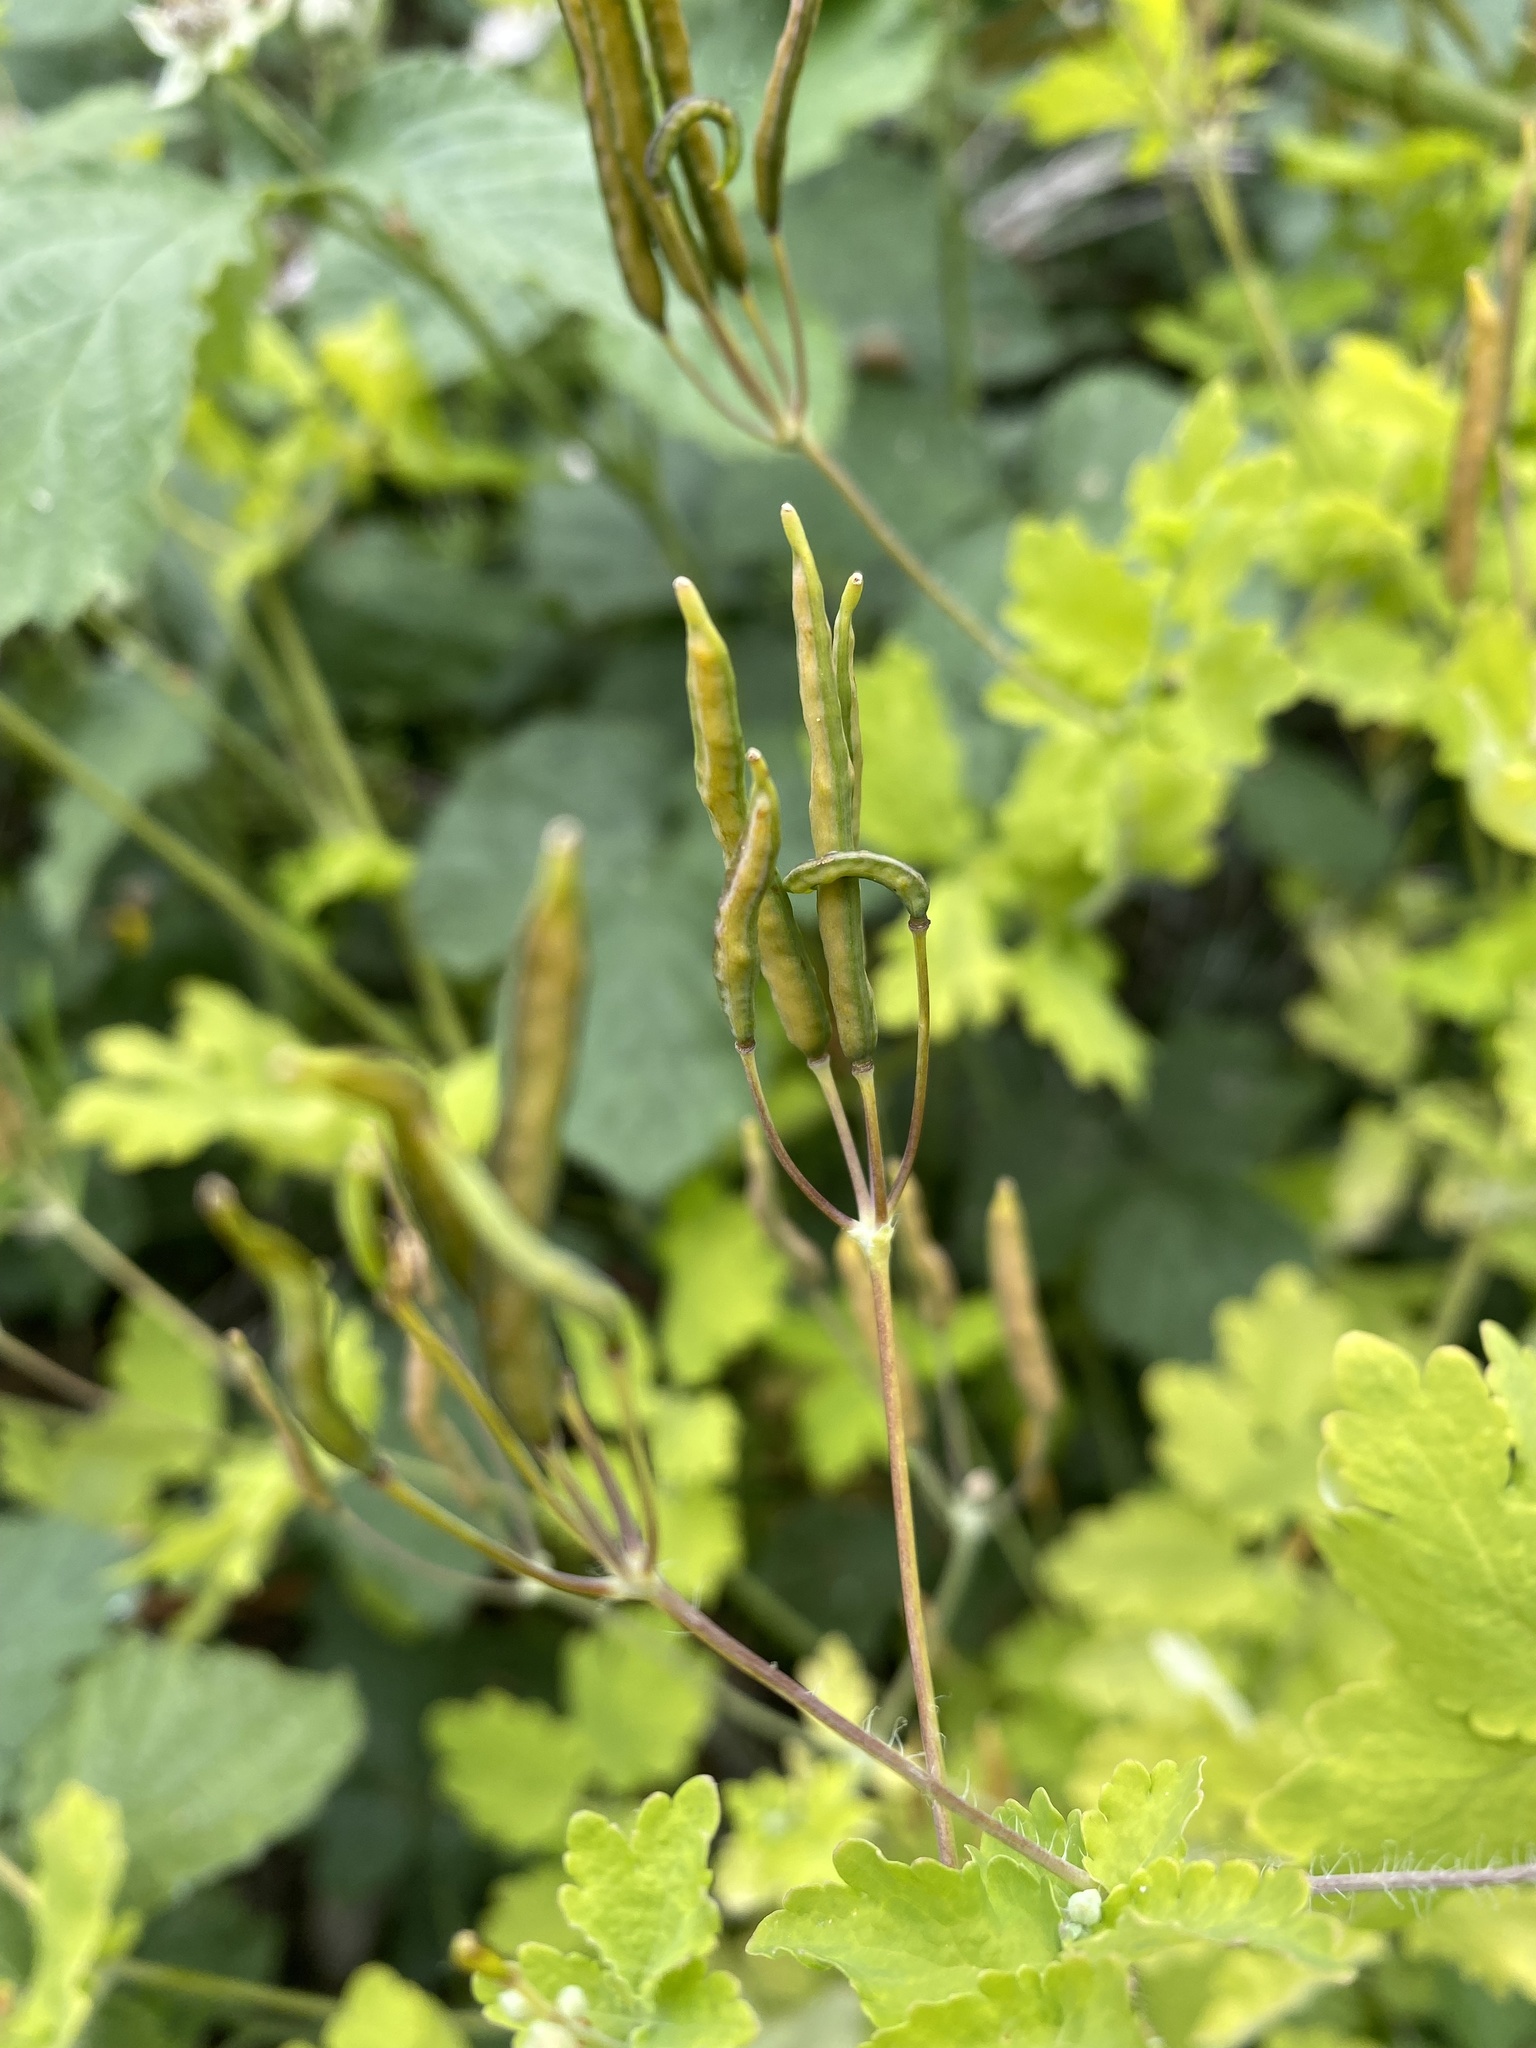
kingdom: Plantae
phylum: Tracheophyta
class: Magnoliopsida
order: Ranunculales
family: Papaveraceae
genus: Chelidonium
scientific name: Chelidonium majus
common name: Greater celandine
